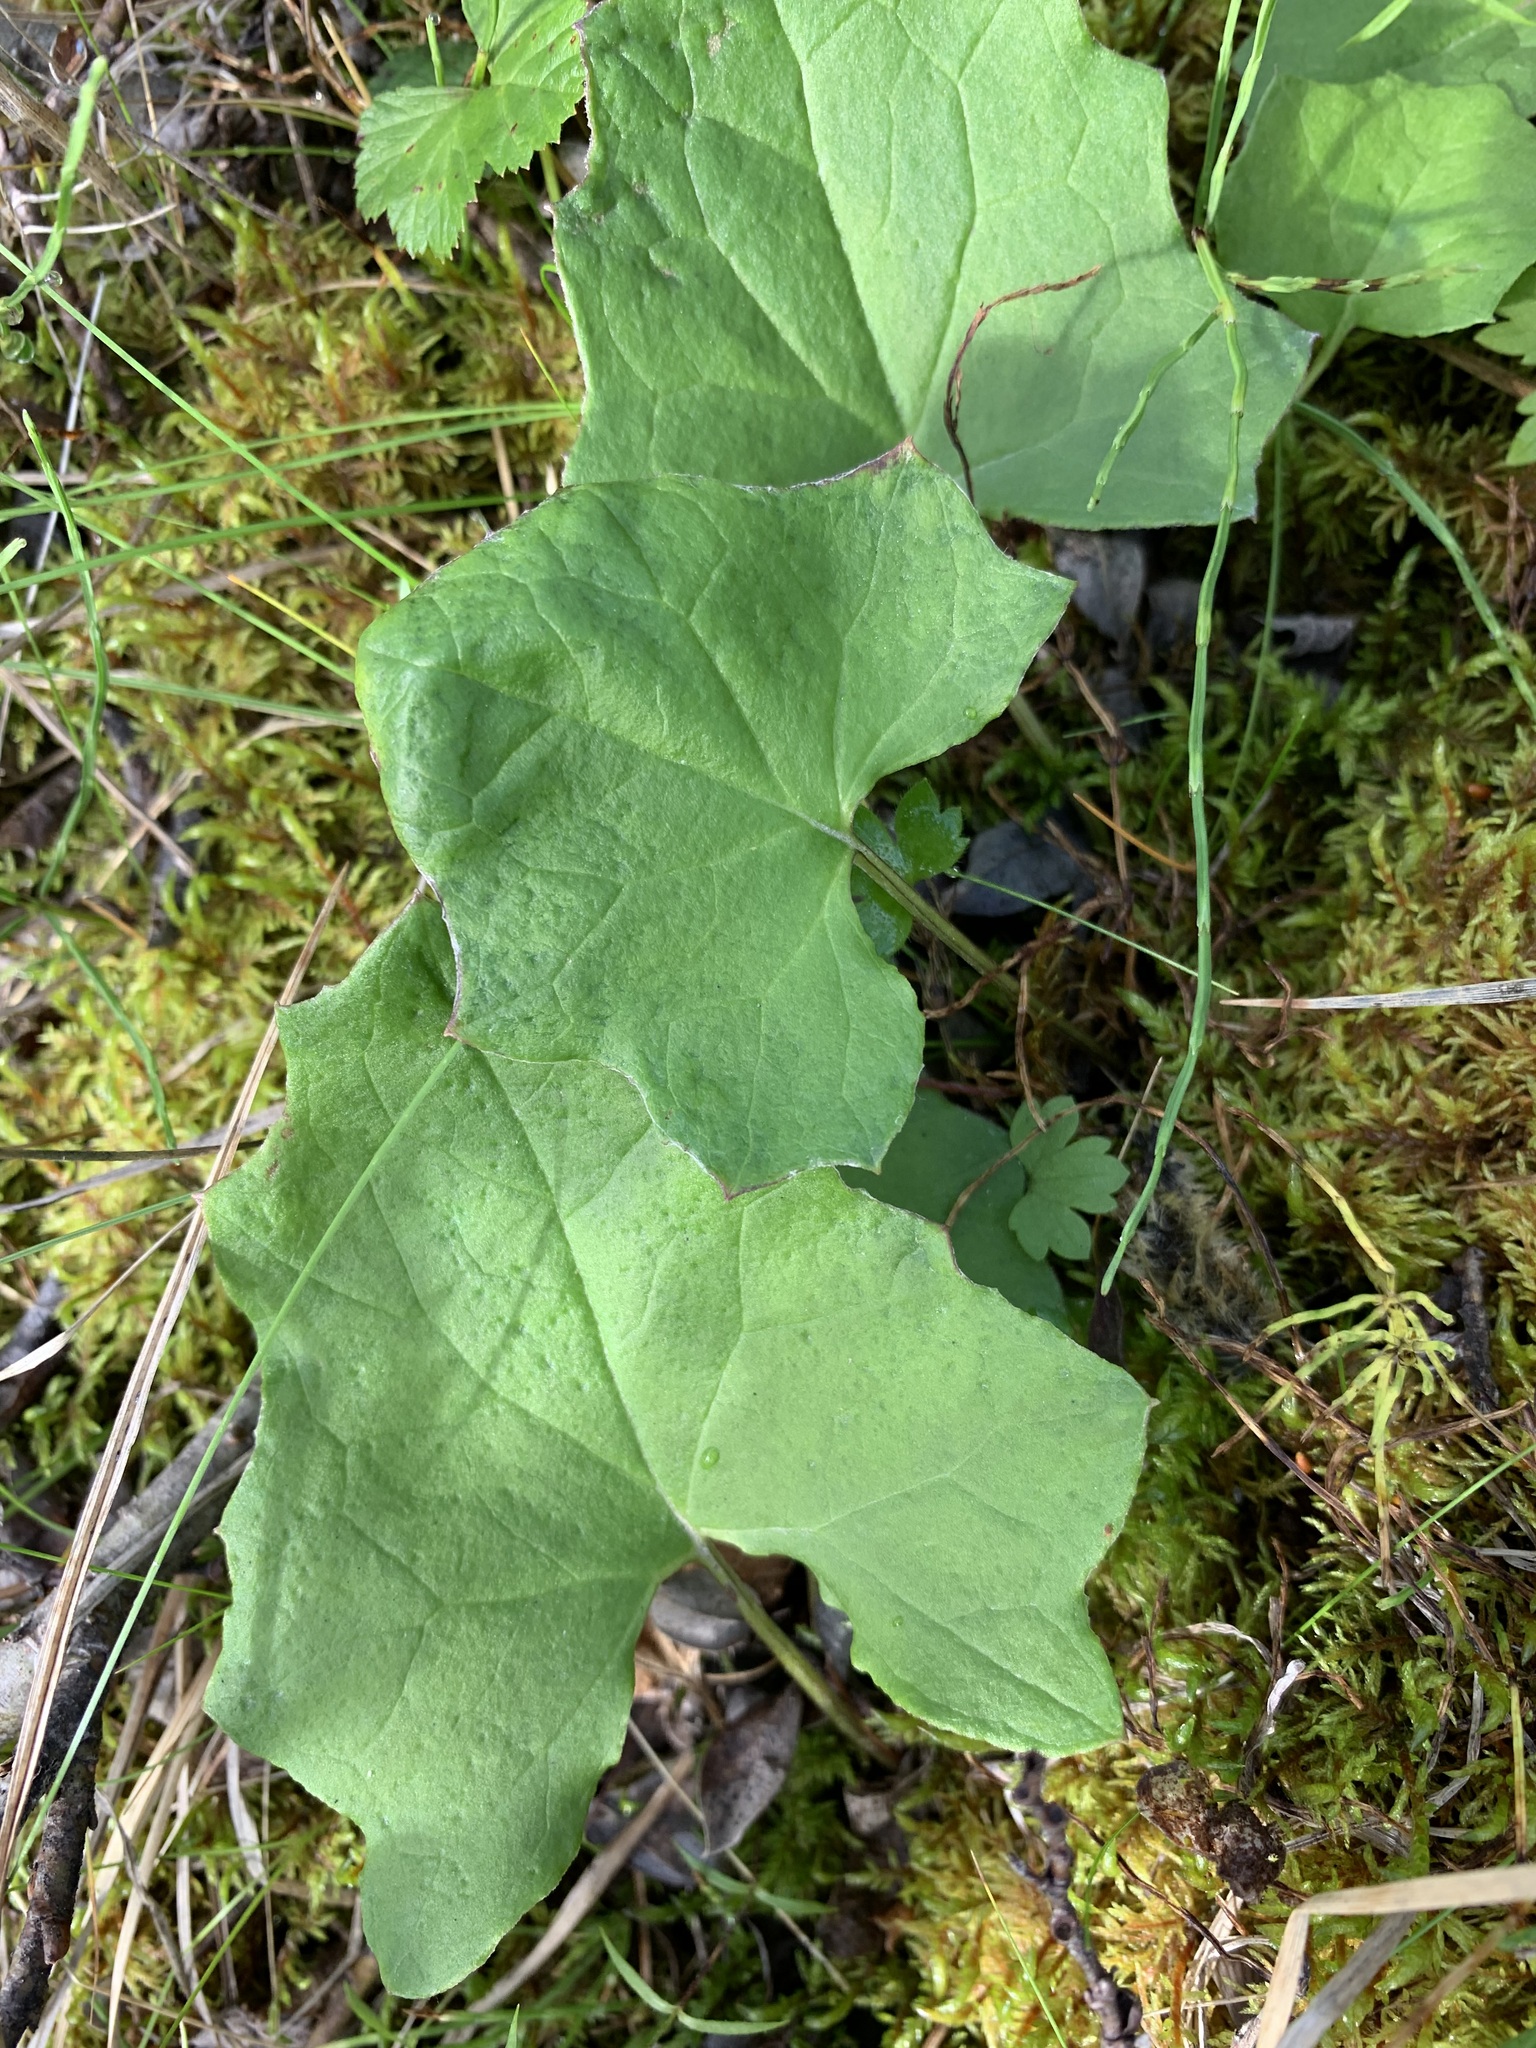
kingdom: Plantae
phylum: Tracheophyta
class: Magnoliopsida
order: Asterales
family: Asteraceae
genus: Petasites
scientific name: Petasites frigidus
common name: Arctic butterbur
